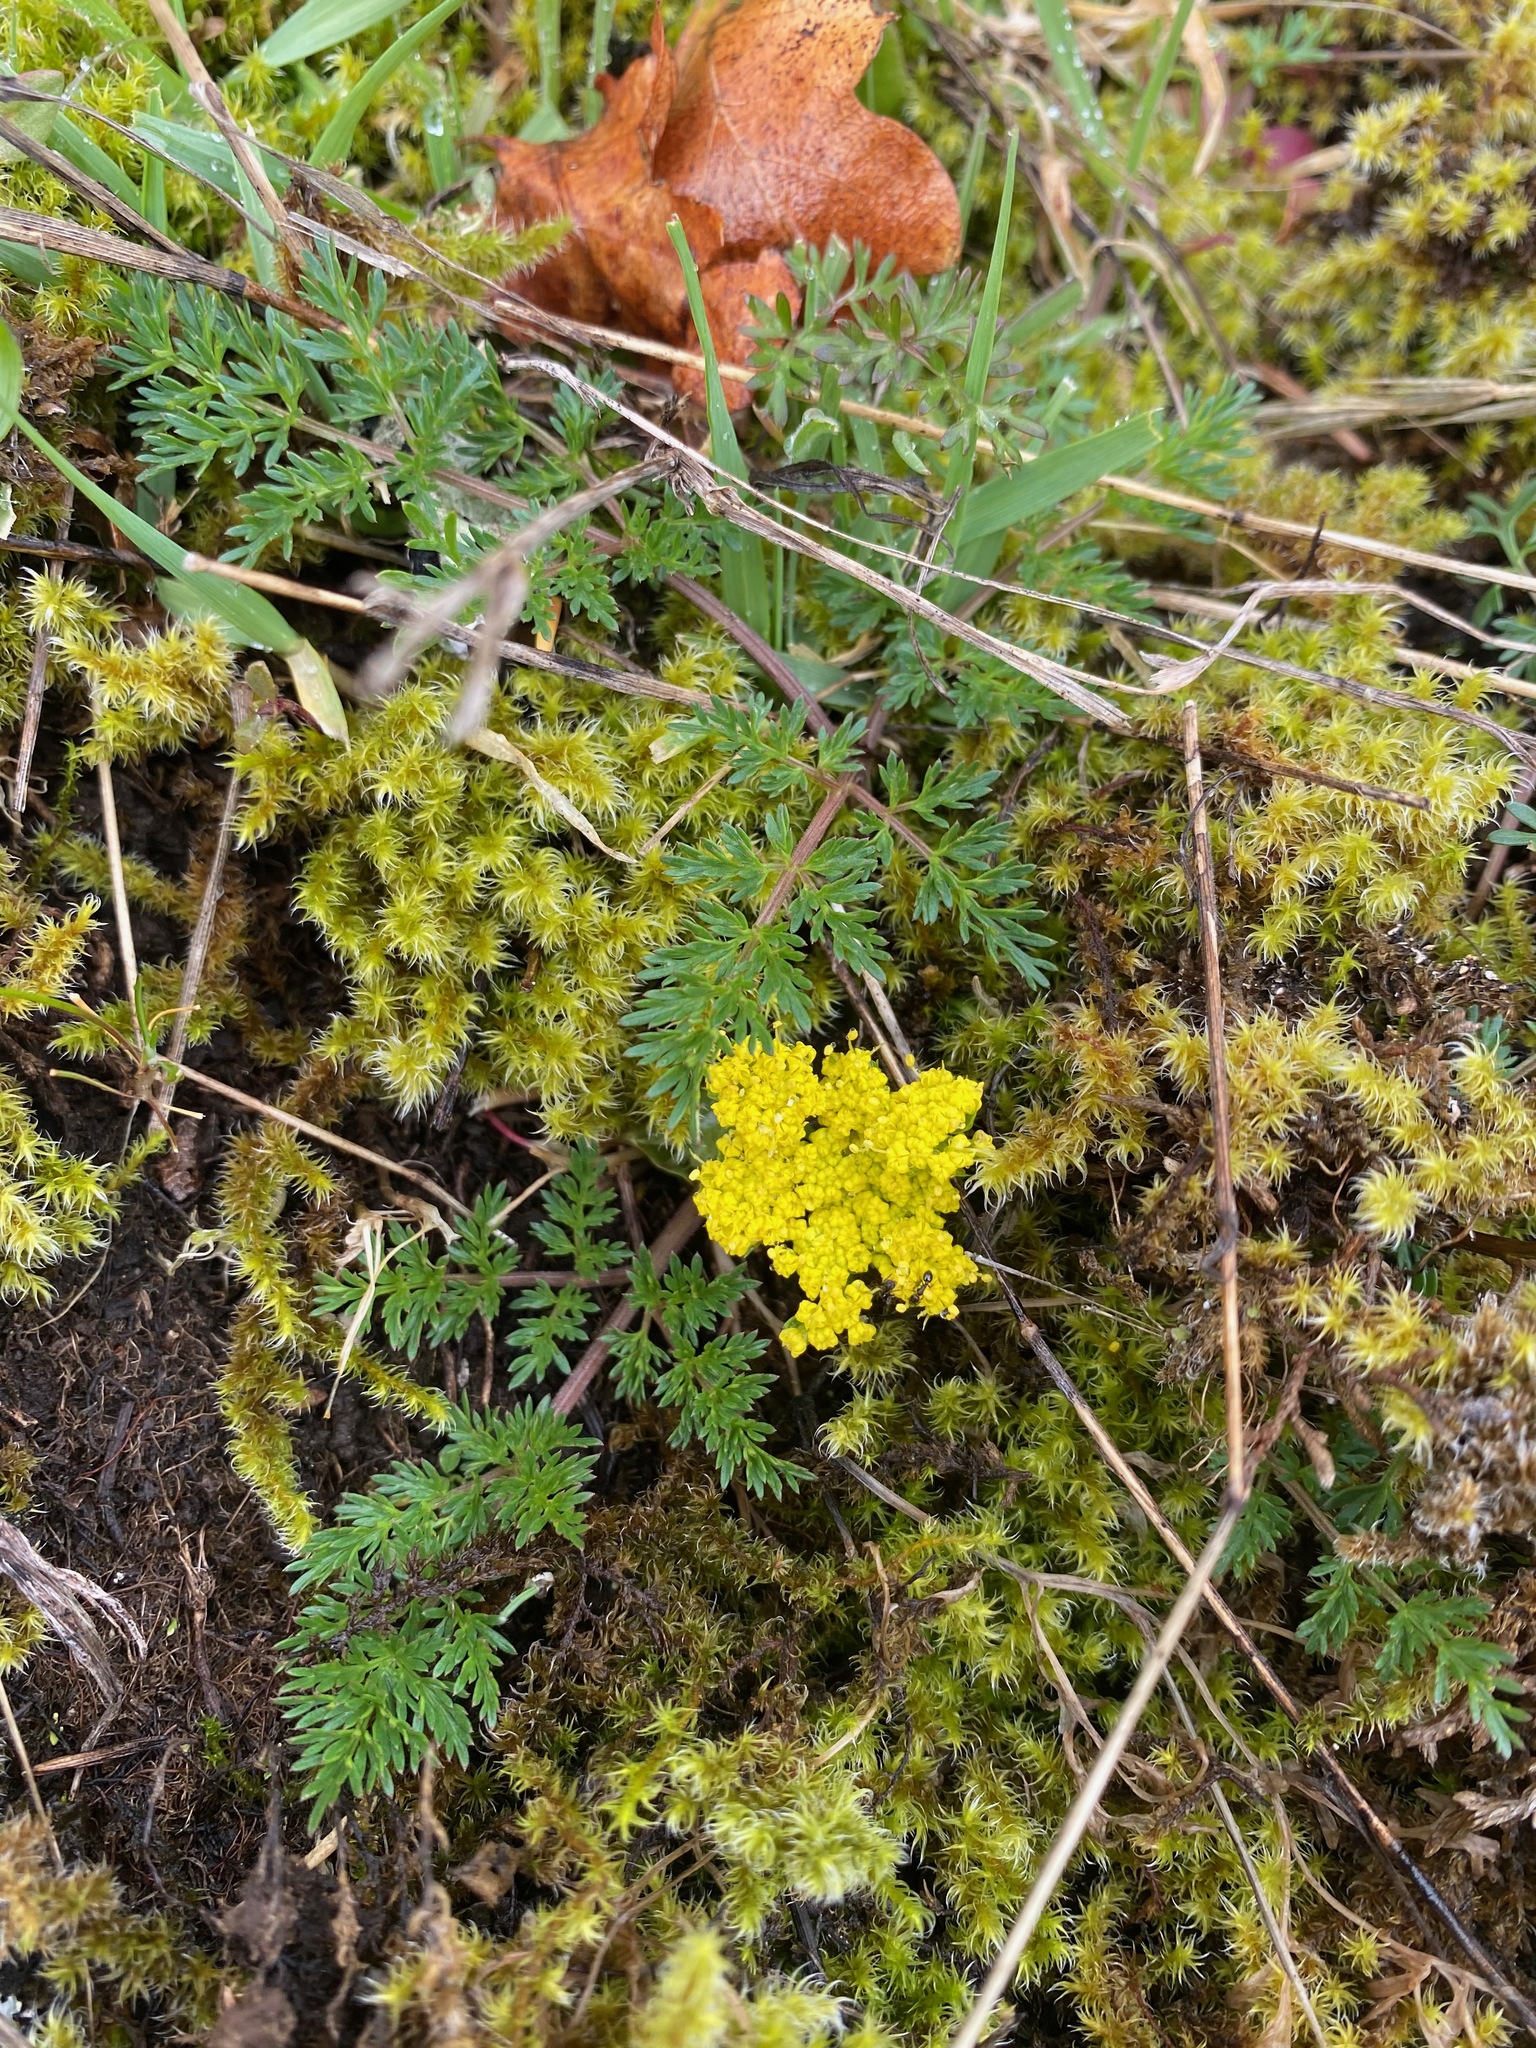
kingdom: Plantae
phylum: Tracheophyta
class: Magnoliopsida
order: Apiales
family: Apiaceae
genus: Lomatium
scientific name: Lomatium utriculatum
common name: Fine-leaf desert-parsley
